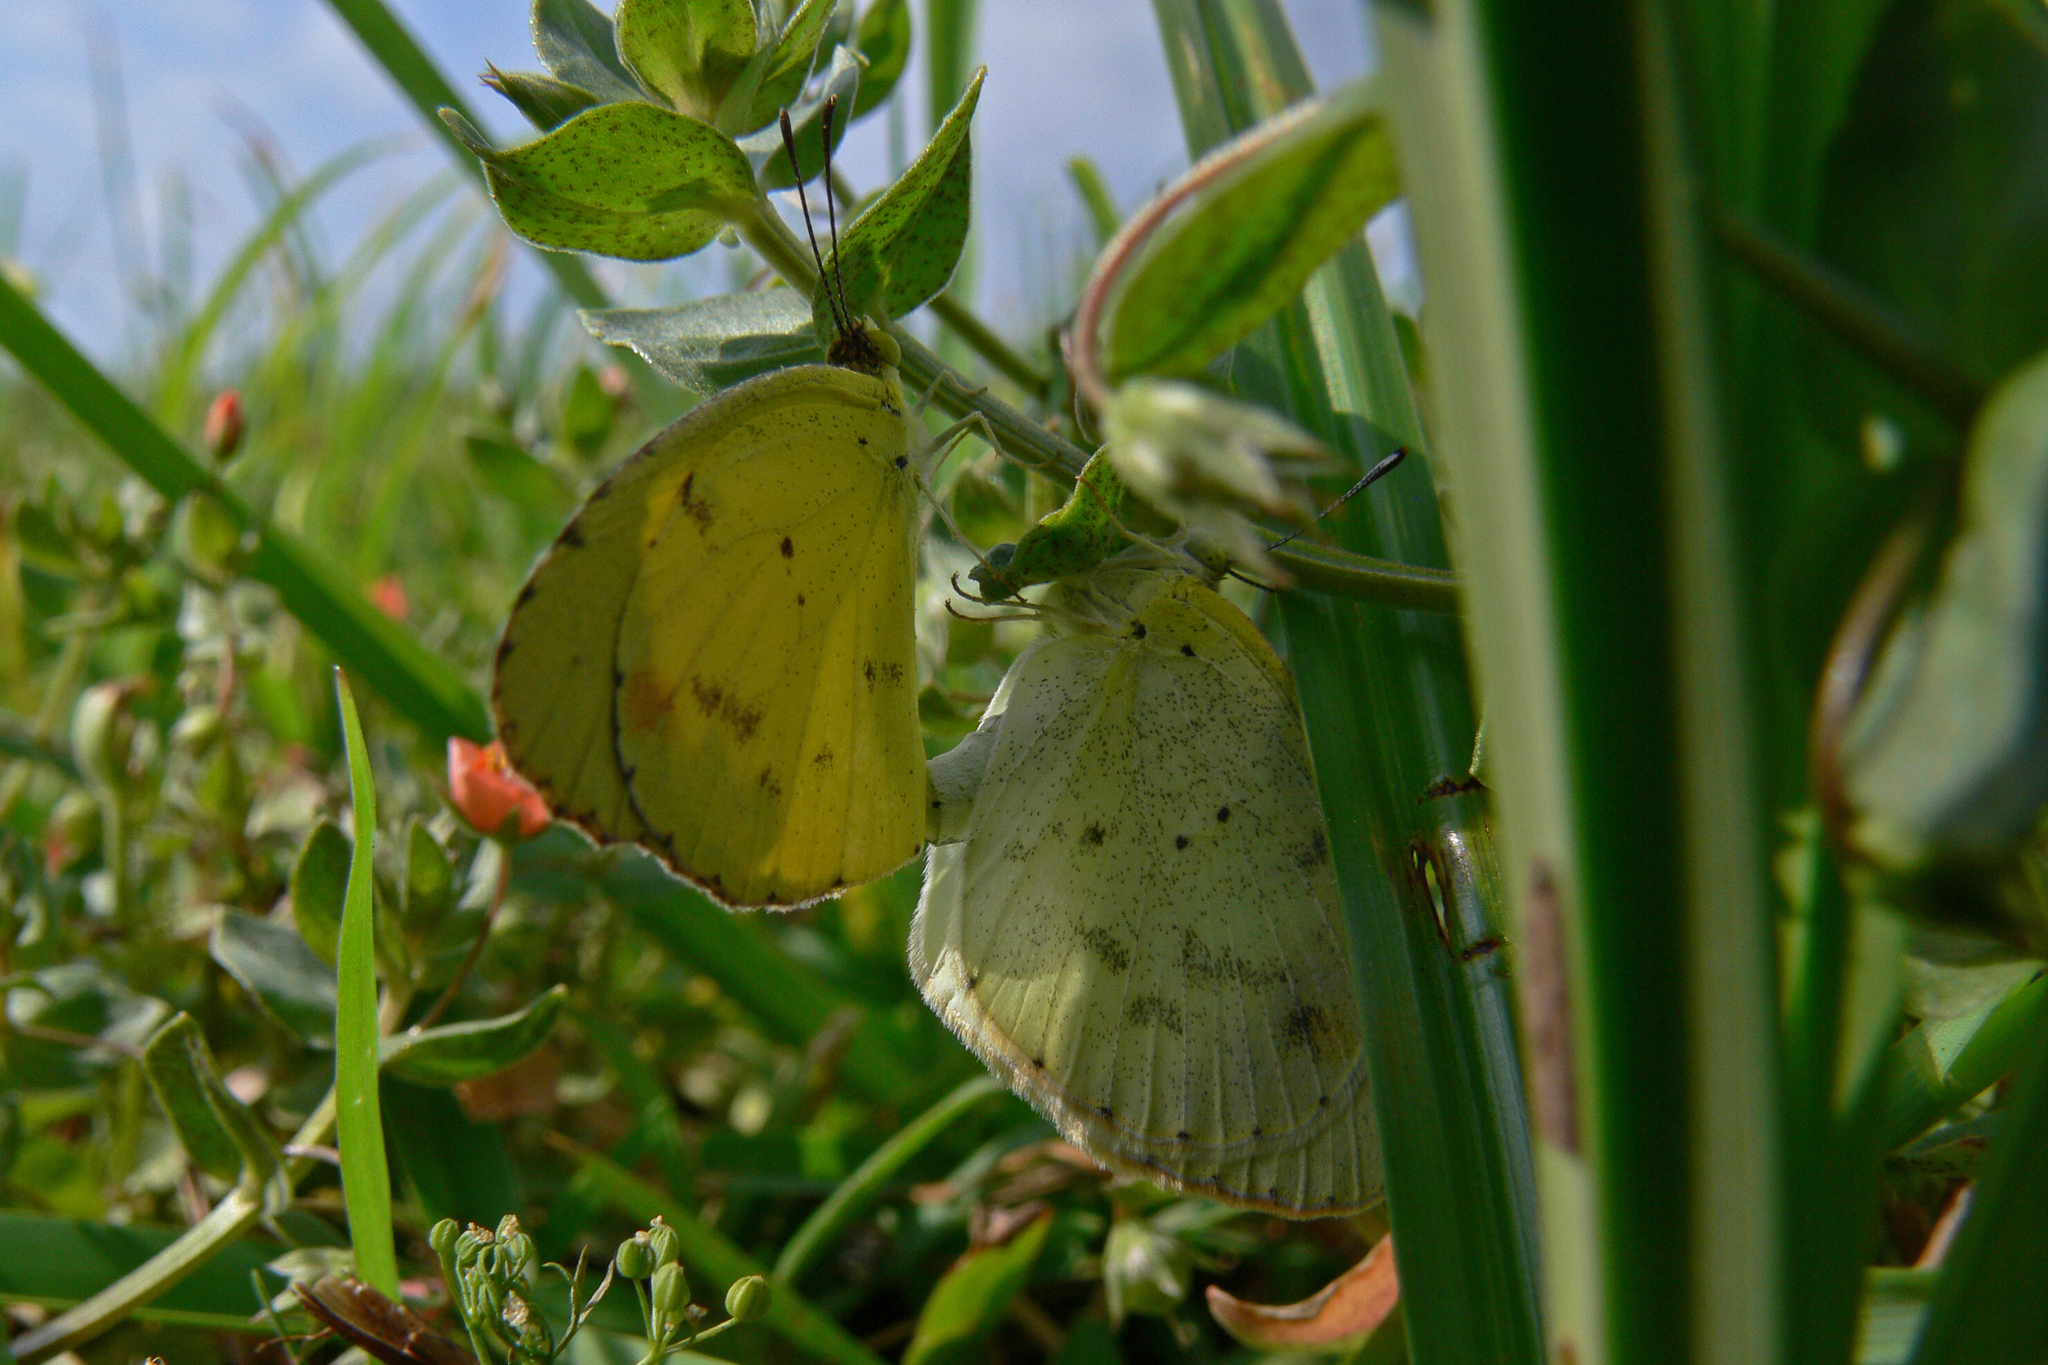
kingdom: Animalia
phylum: Arthropoda
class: Insecta
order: Lepidoptera
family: Pieridae
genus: Pyrisitia
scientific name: Pyrisitia lisa
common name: Little yellow
